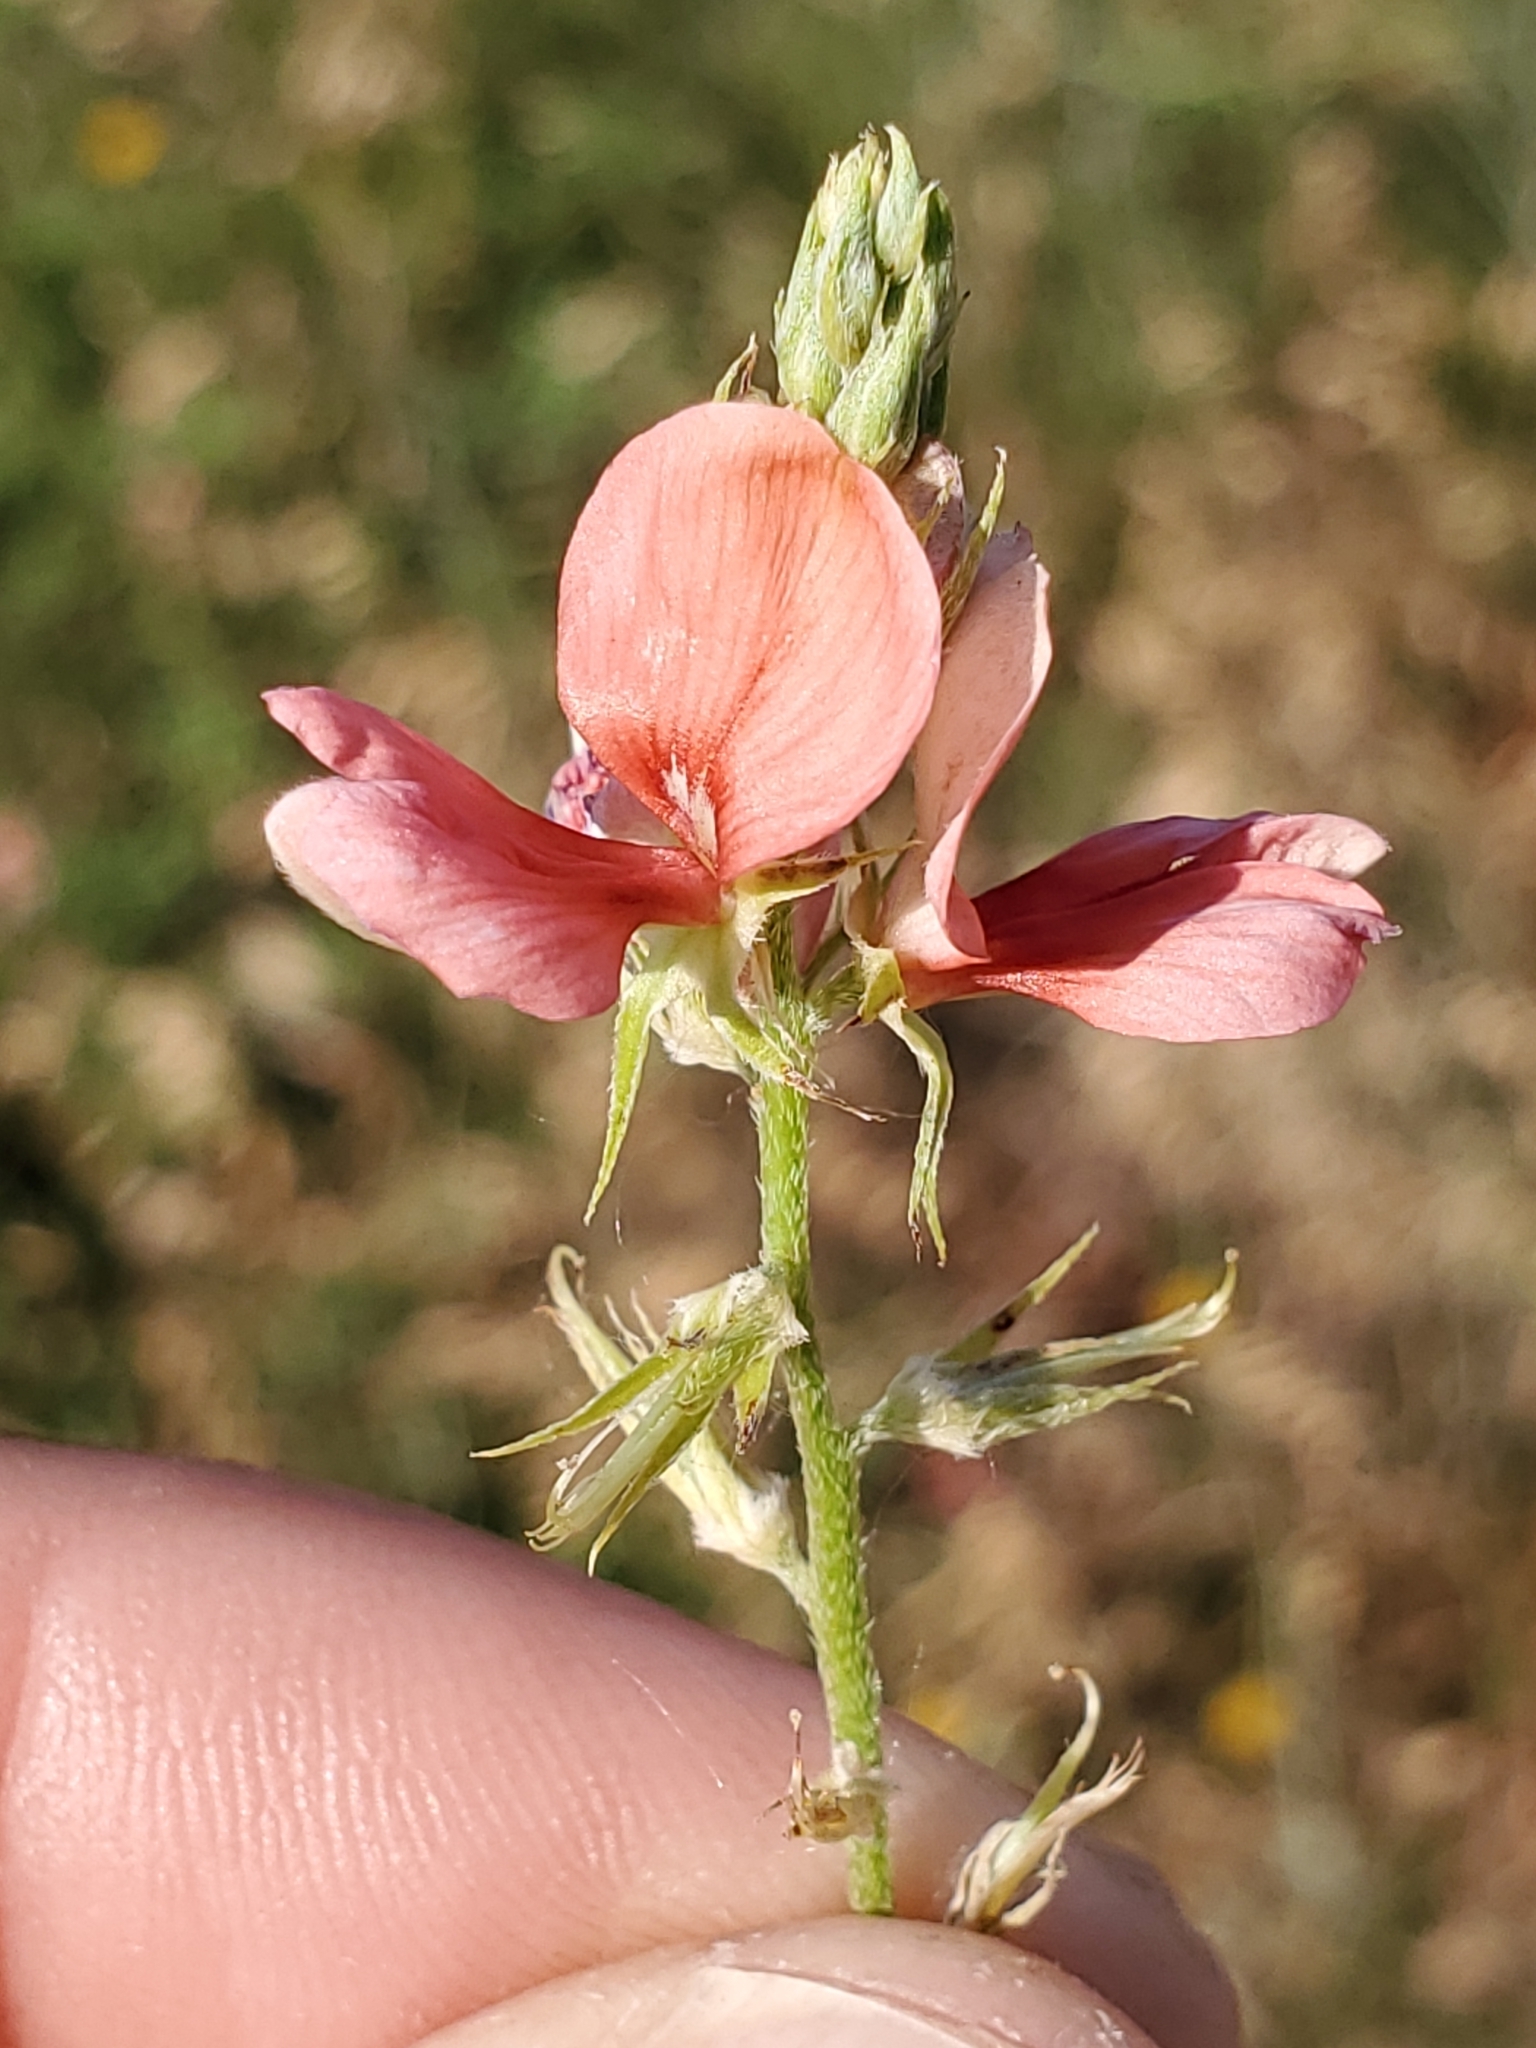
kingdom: Plantae
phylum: Tracheophyta
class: Magnoliopsida
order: Fabales
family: Fabaceae
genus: Indigofera
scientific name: Indigofera miniata
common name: Coast indigo
